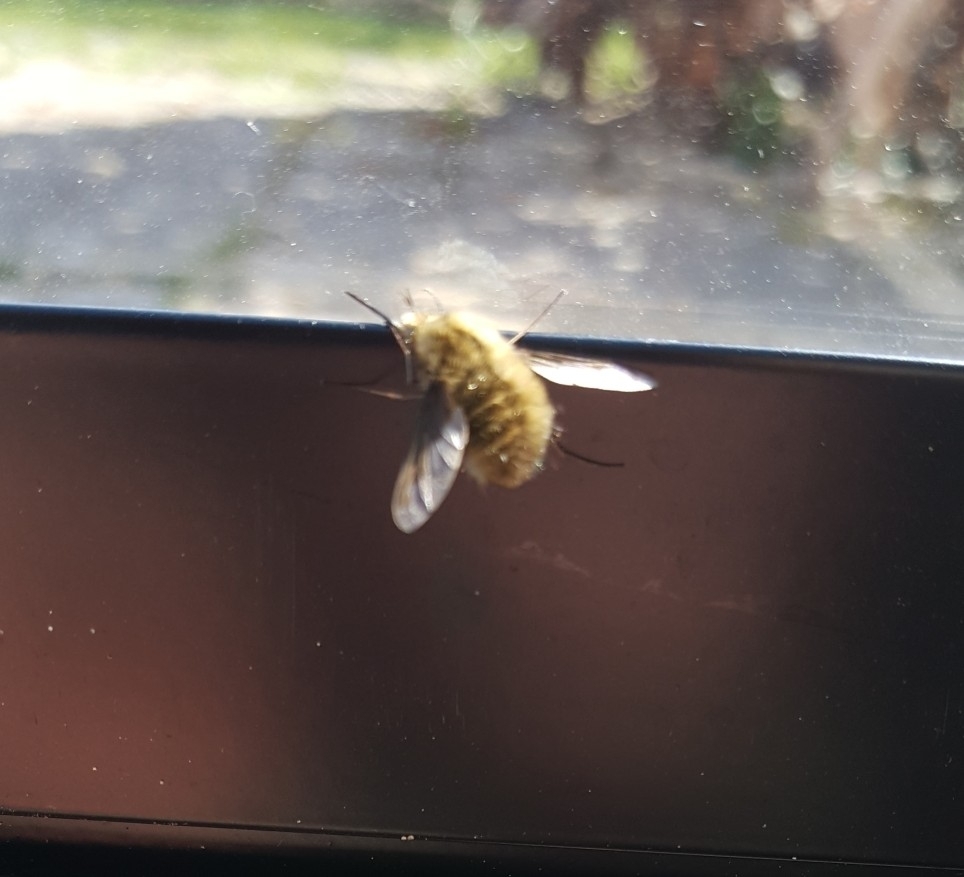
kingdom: Animalia
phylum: Arthropoda
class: Insecta
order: Diptera
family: Bombyliidae
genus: Bombylius
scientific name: Bombylius major
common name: Bee fly
